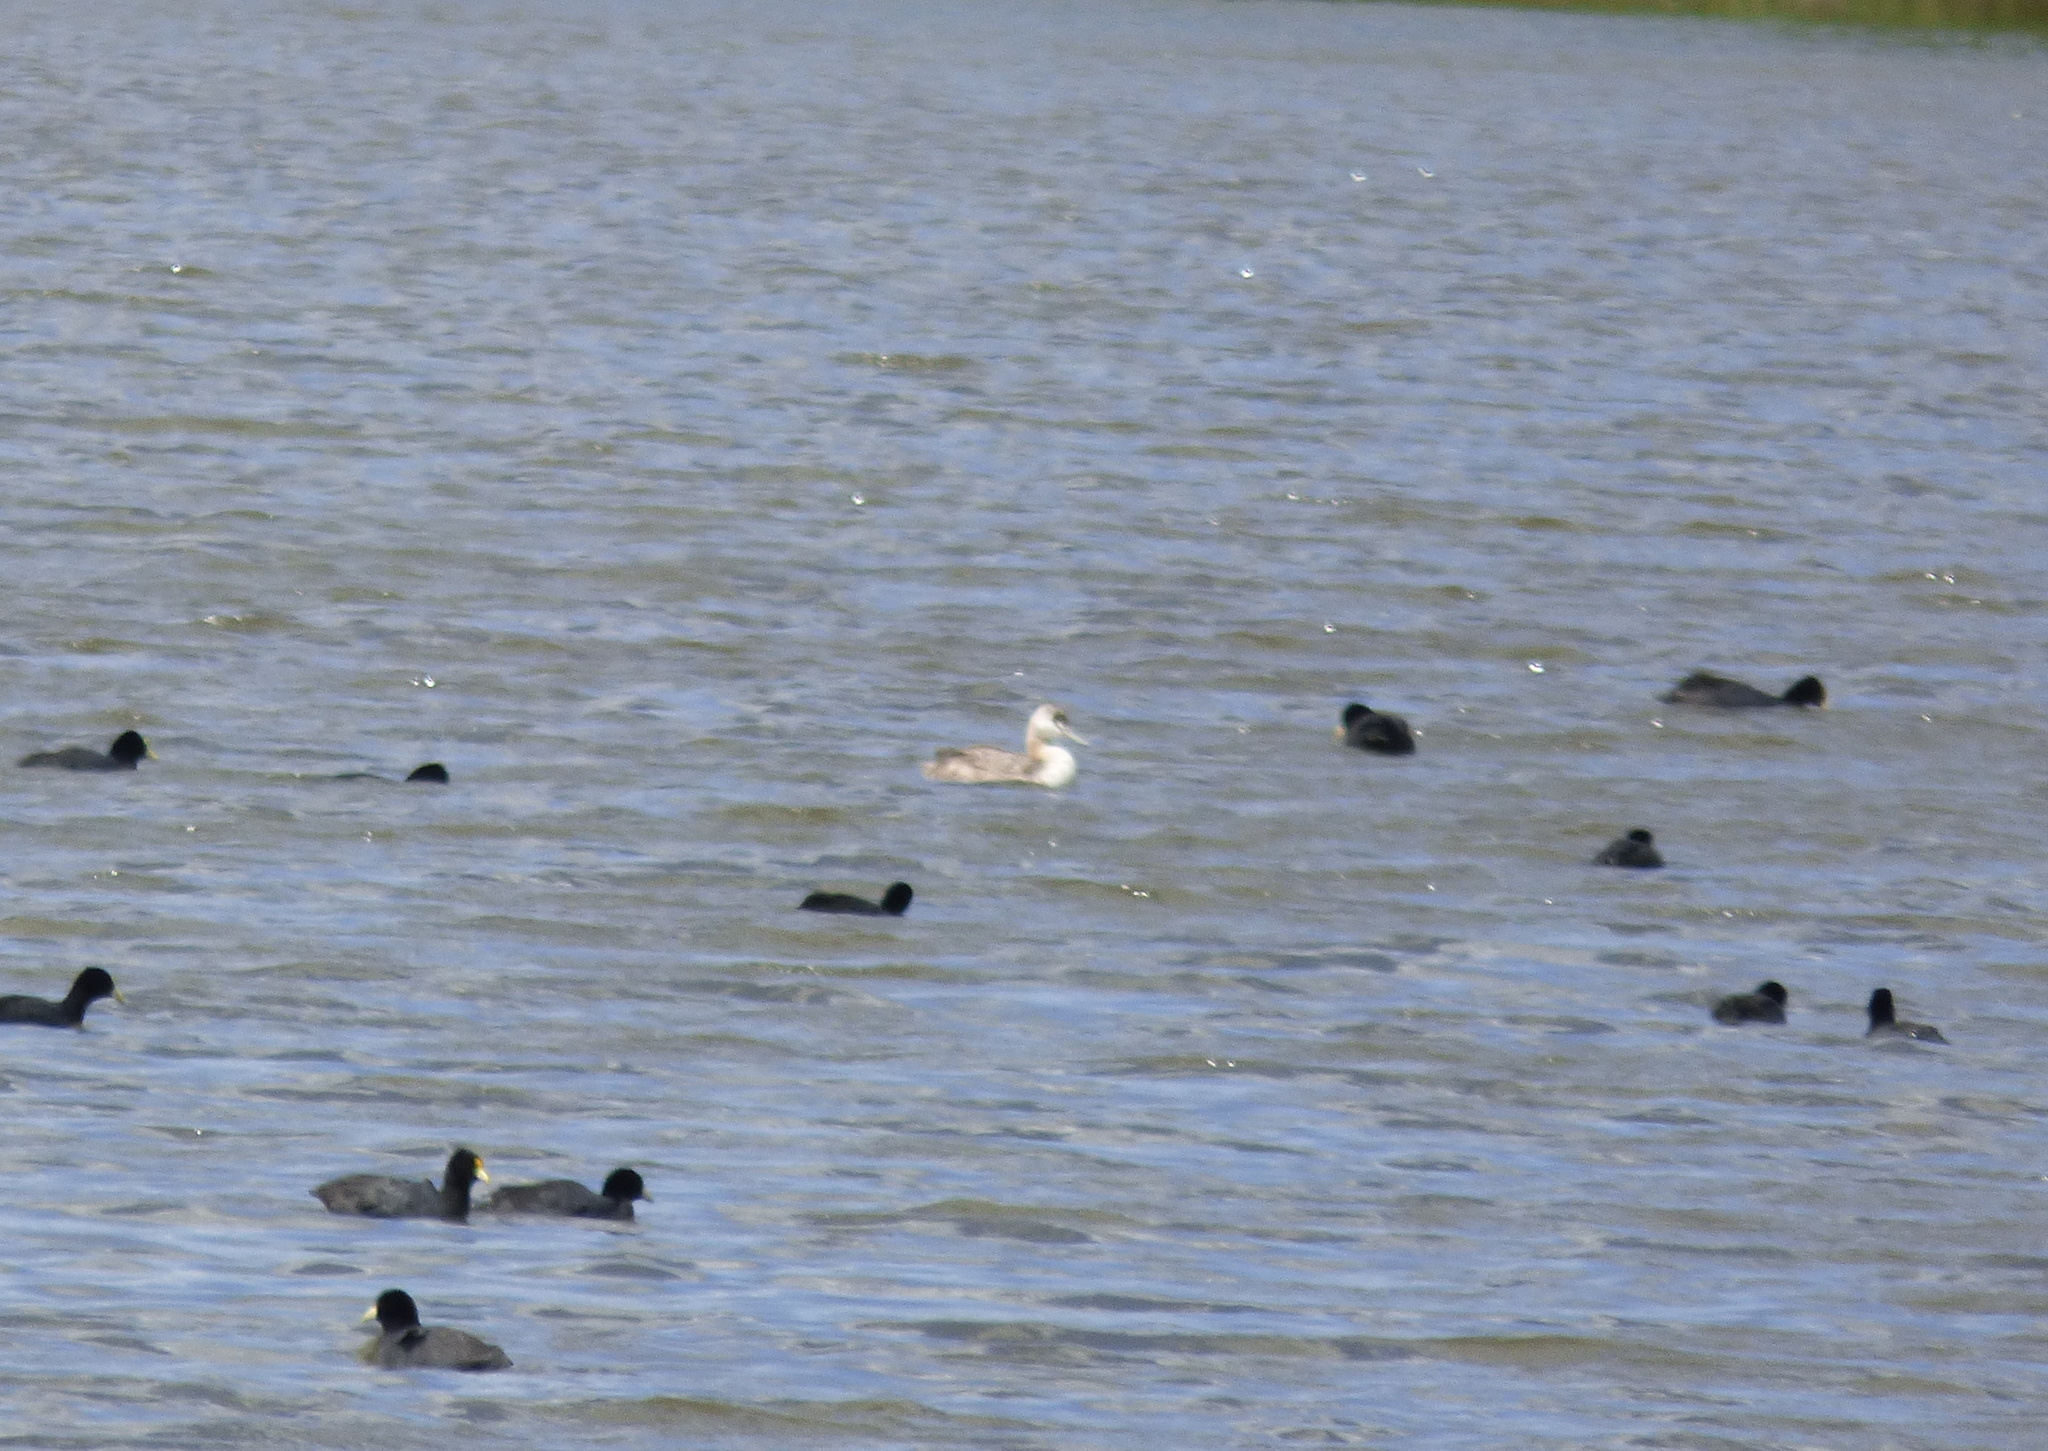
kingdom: Animalia
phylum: Chordata
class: Aves
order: Podicipediformes
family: Podicipedidae
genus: Podiceps
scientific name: Podiceps major
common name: Great grebe
